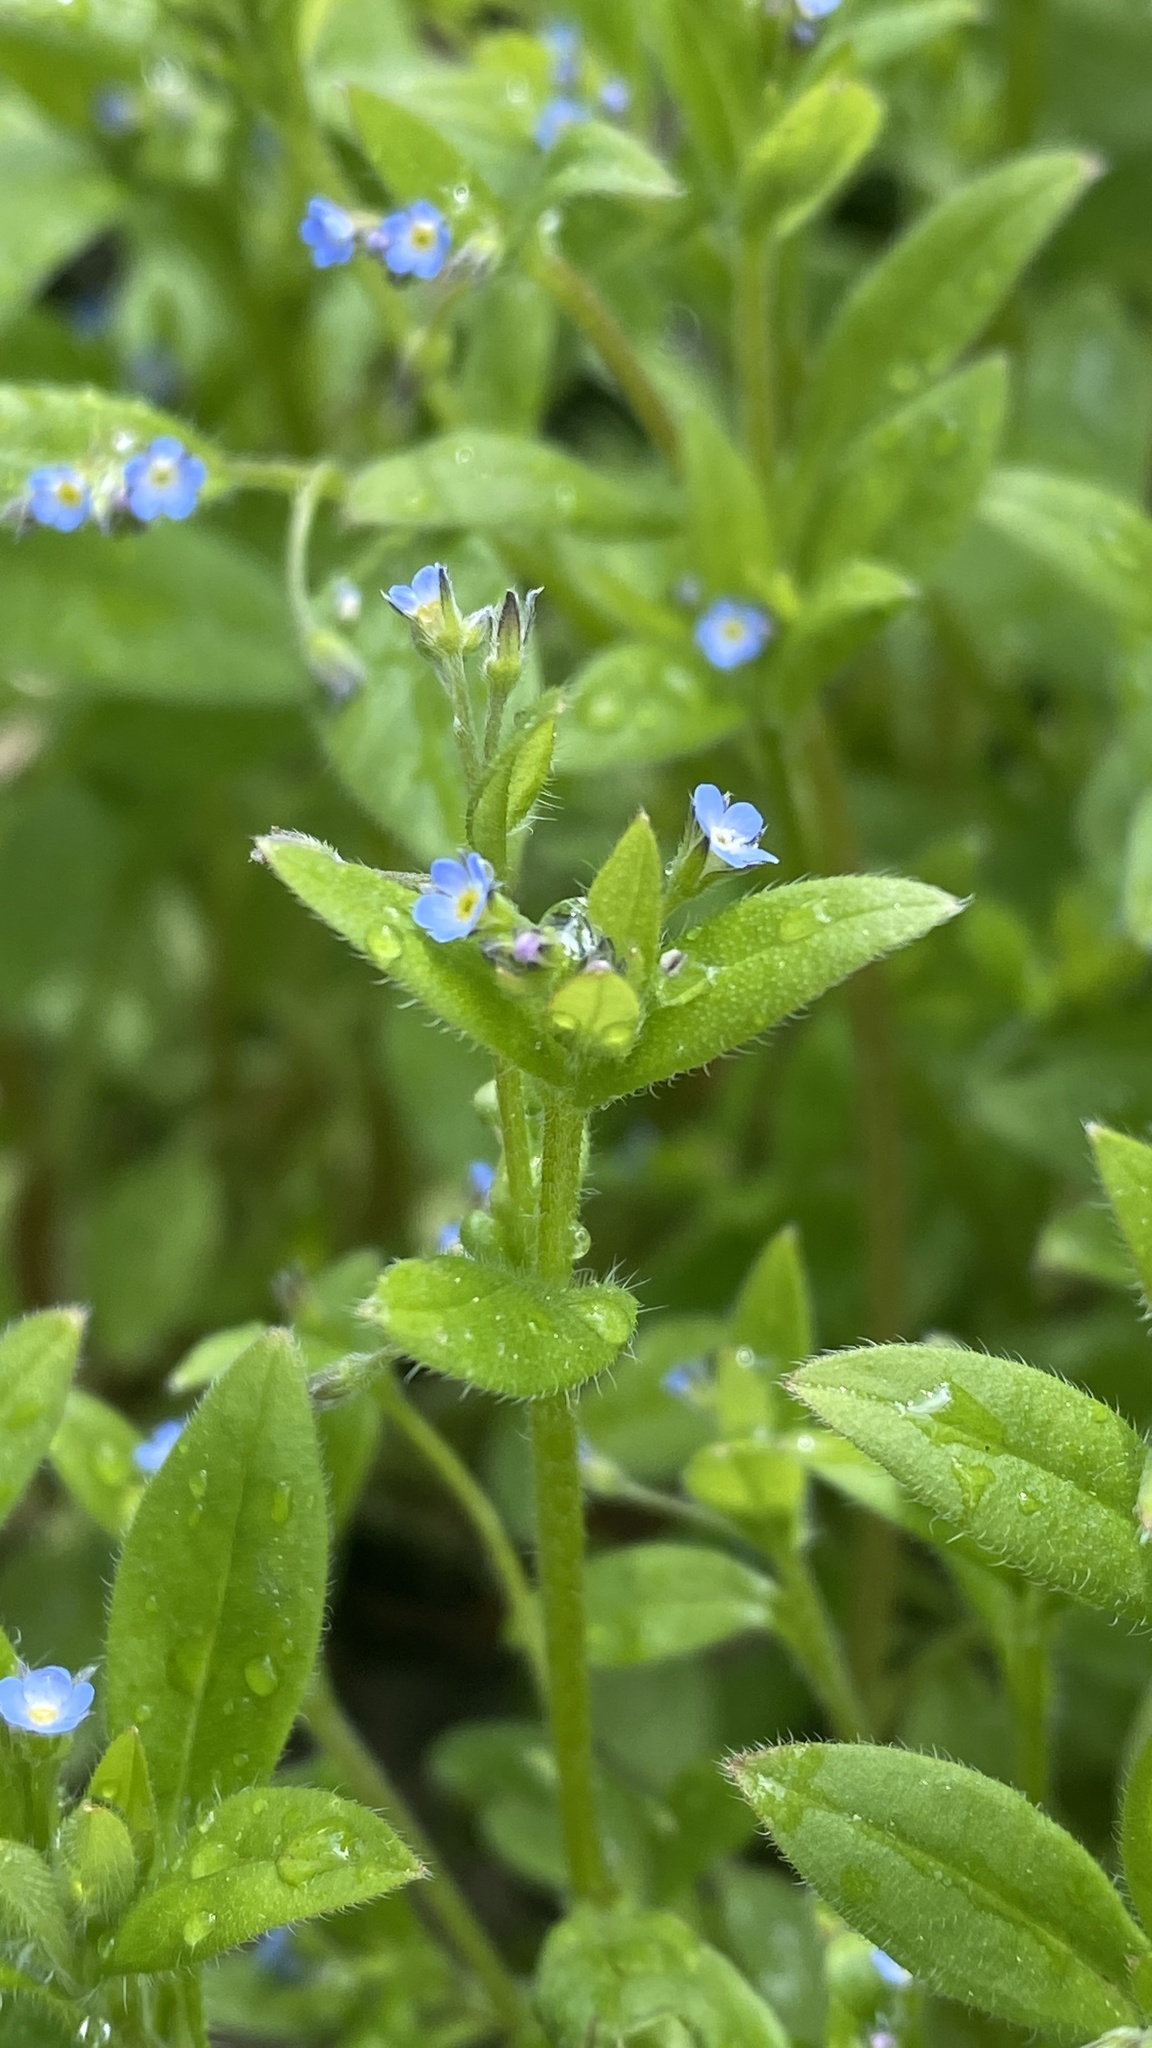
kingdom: Plantae
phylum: Tracheophyta
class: Magnoliopsida
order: Boraginales
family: Boraginaceae
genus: Myosotis
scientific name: Myosotis sparsiflora
